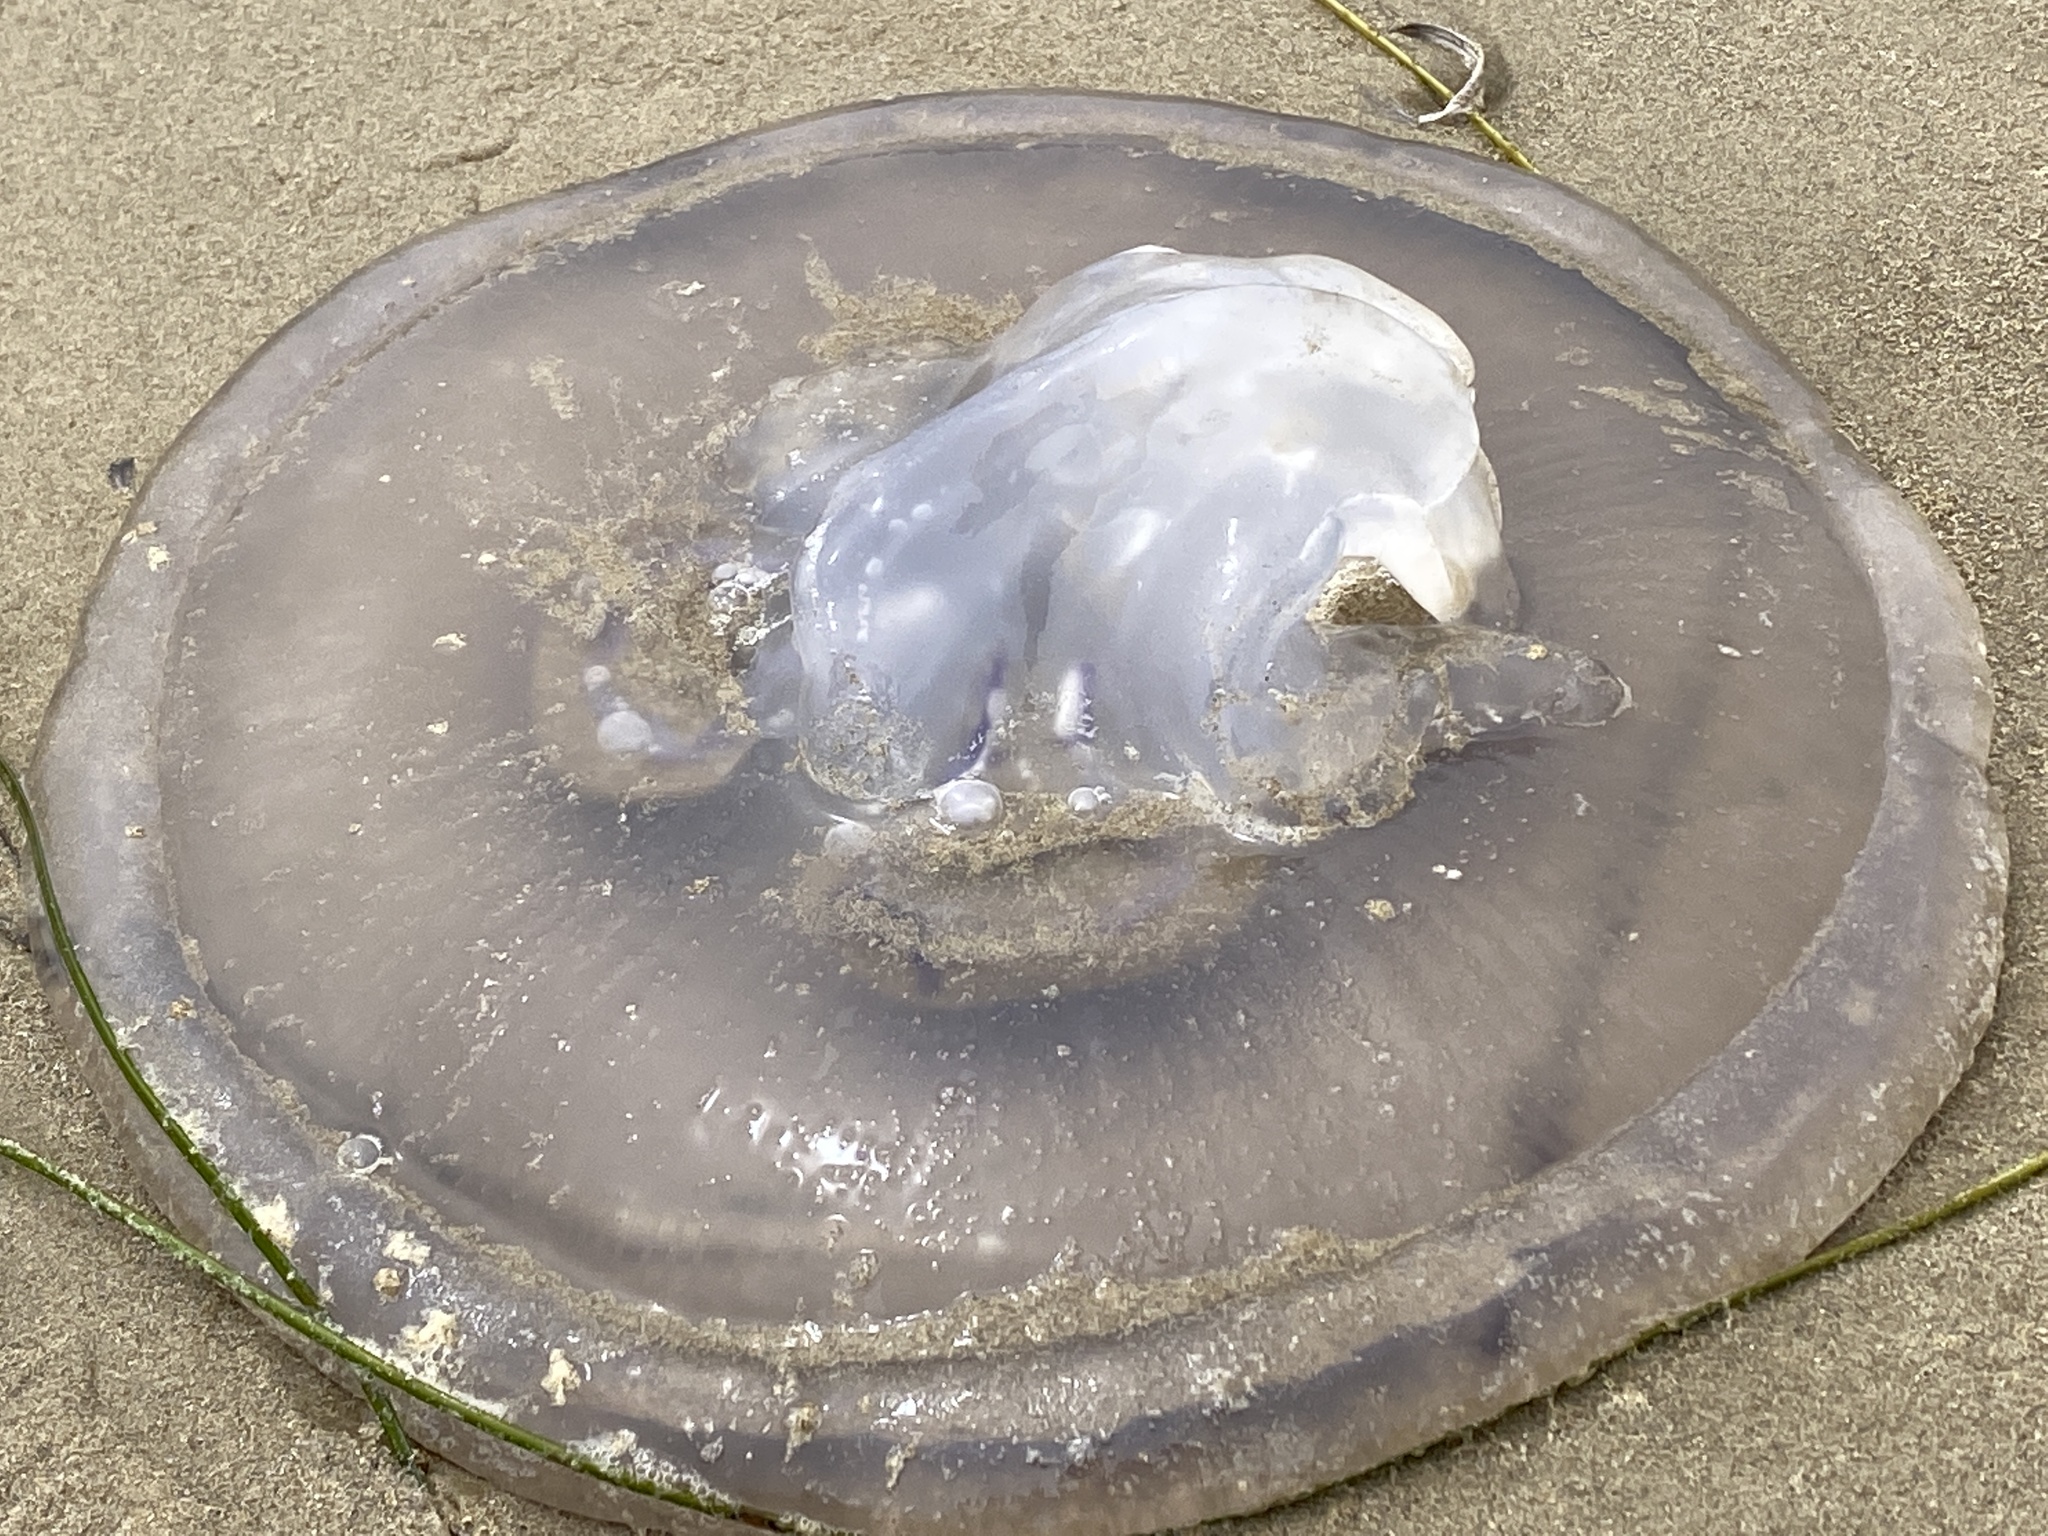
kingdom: Animalia
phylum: Cnidaria
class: Scyphozoa
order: Semaeostomeae
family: Ulmaridae
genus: Aurelia
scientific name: Aurelia labiata
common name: Pacific moon jelly
